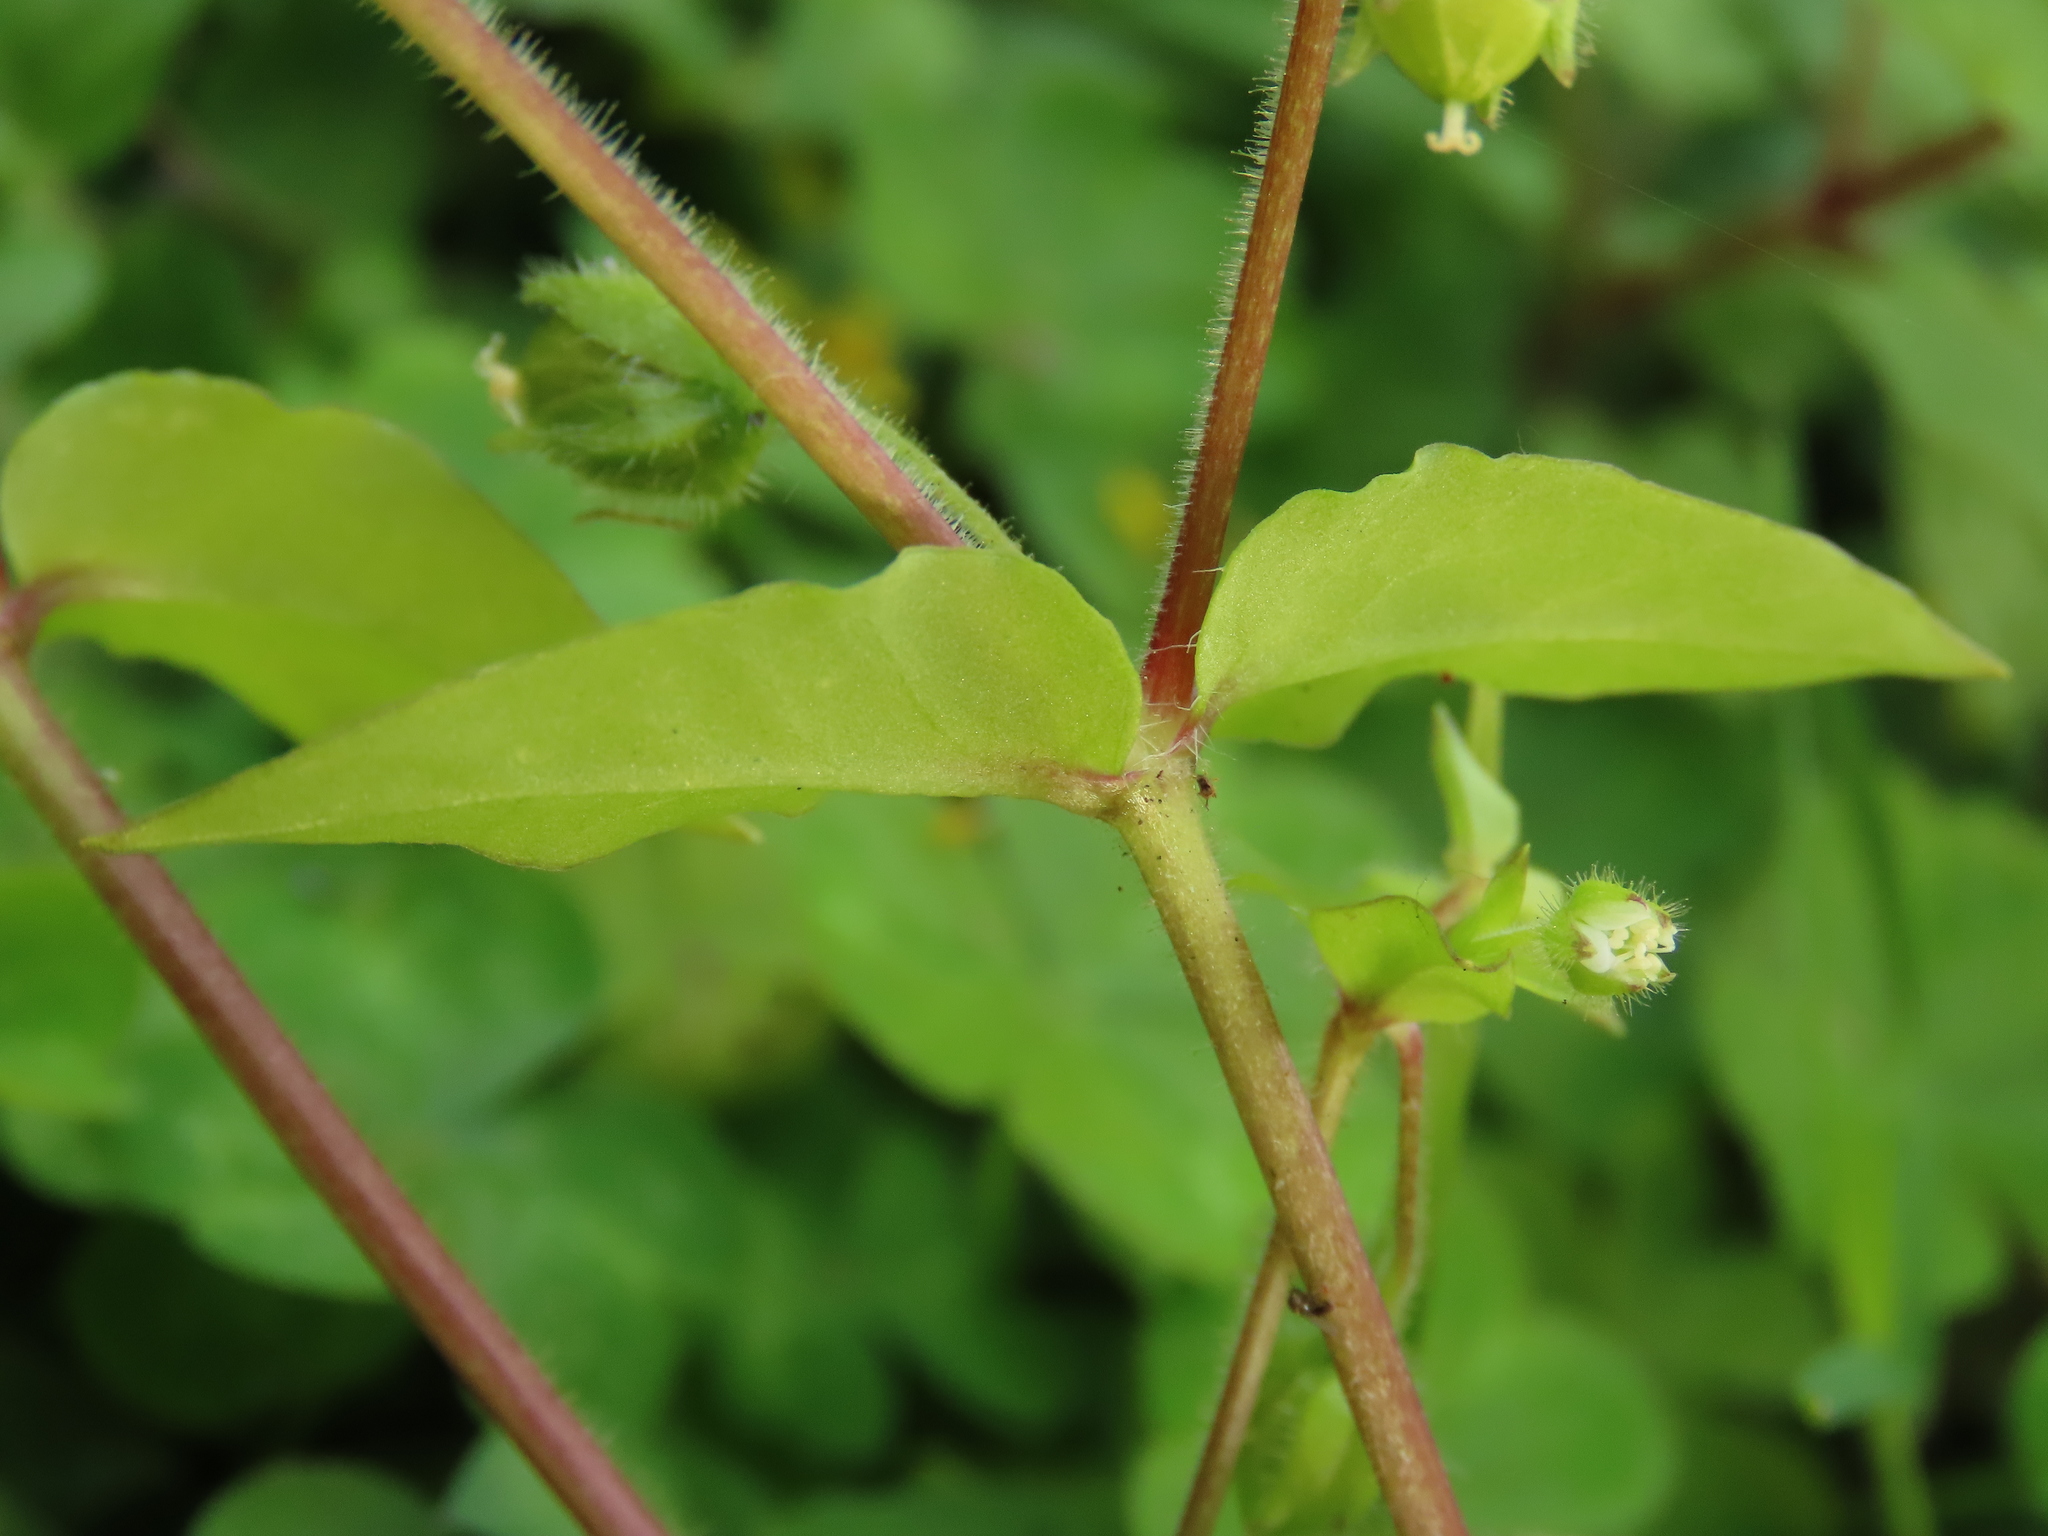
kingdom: Plantae
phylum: Tracheophyta
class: Magnoliopsida
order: Caryophyllales
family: Caryophyllaceae
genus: Stellaria
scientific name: Stellaria aquatica
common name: Water chickweed
